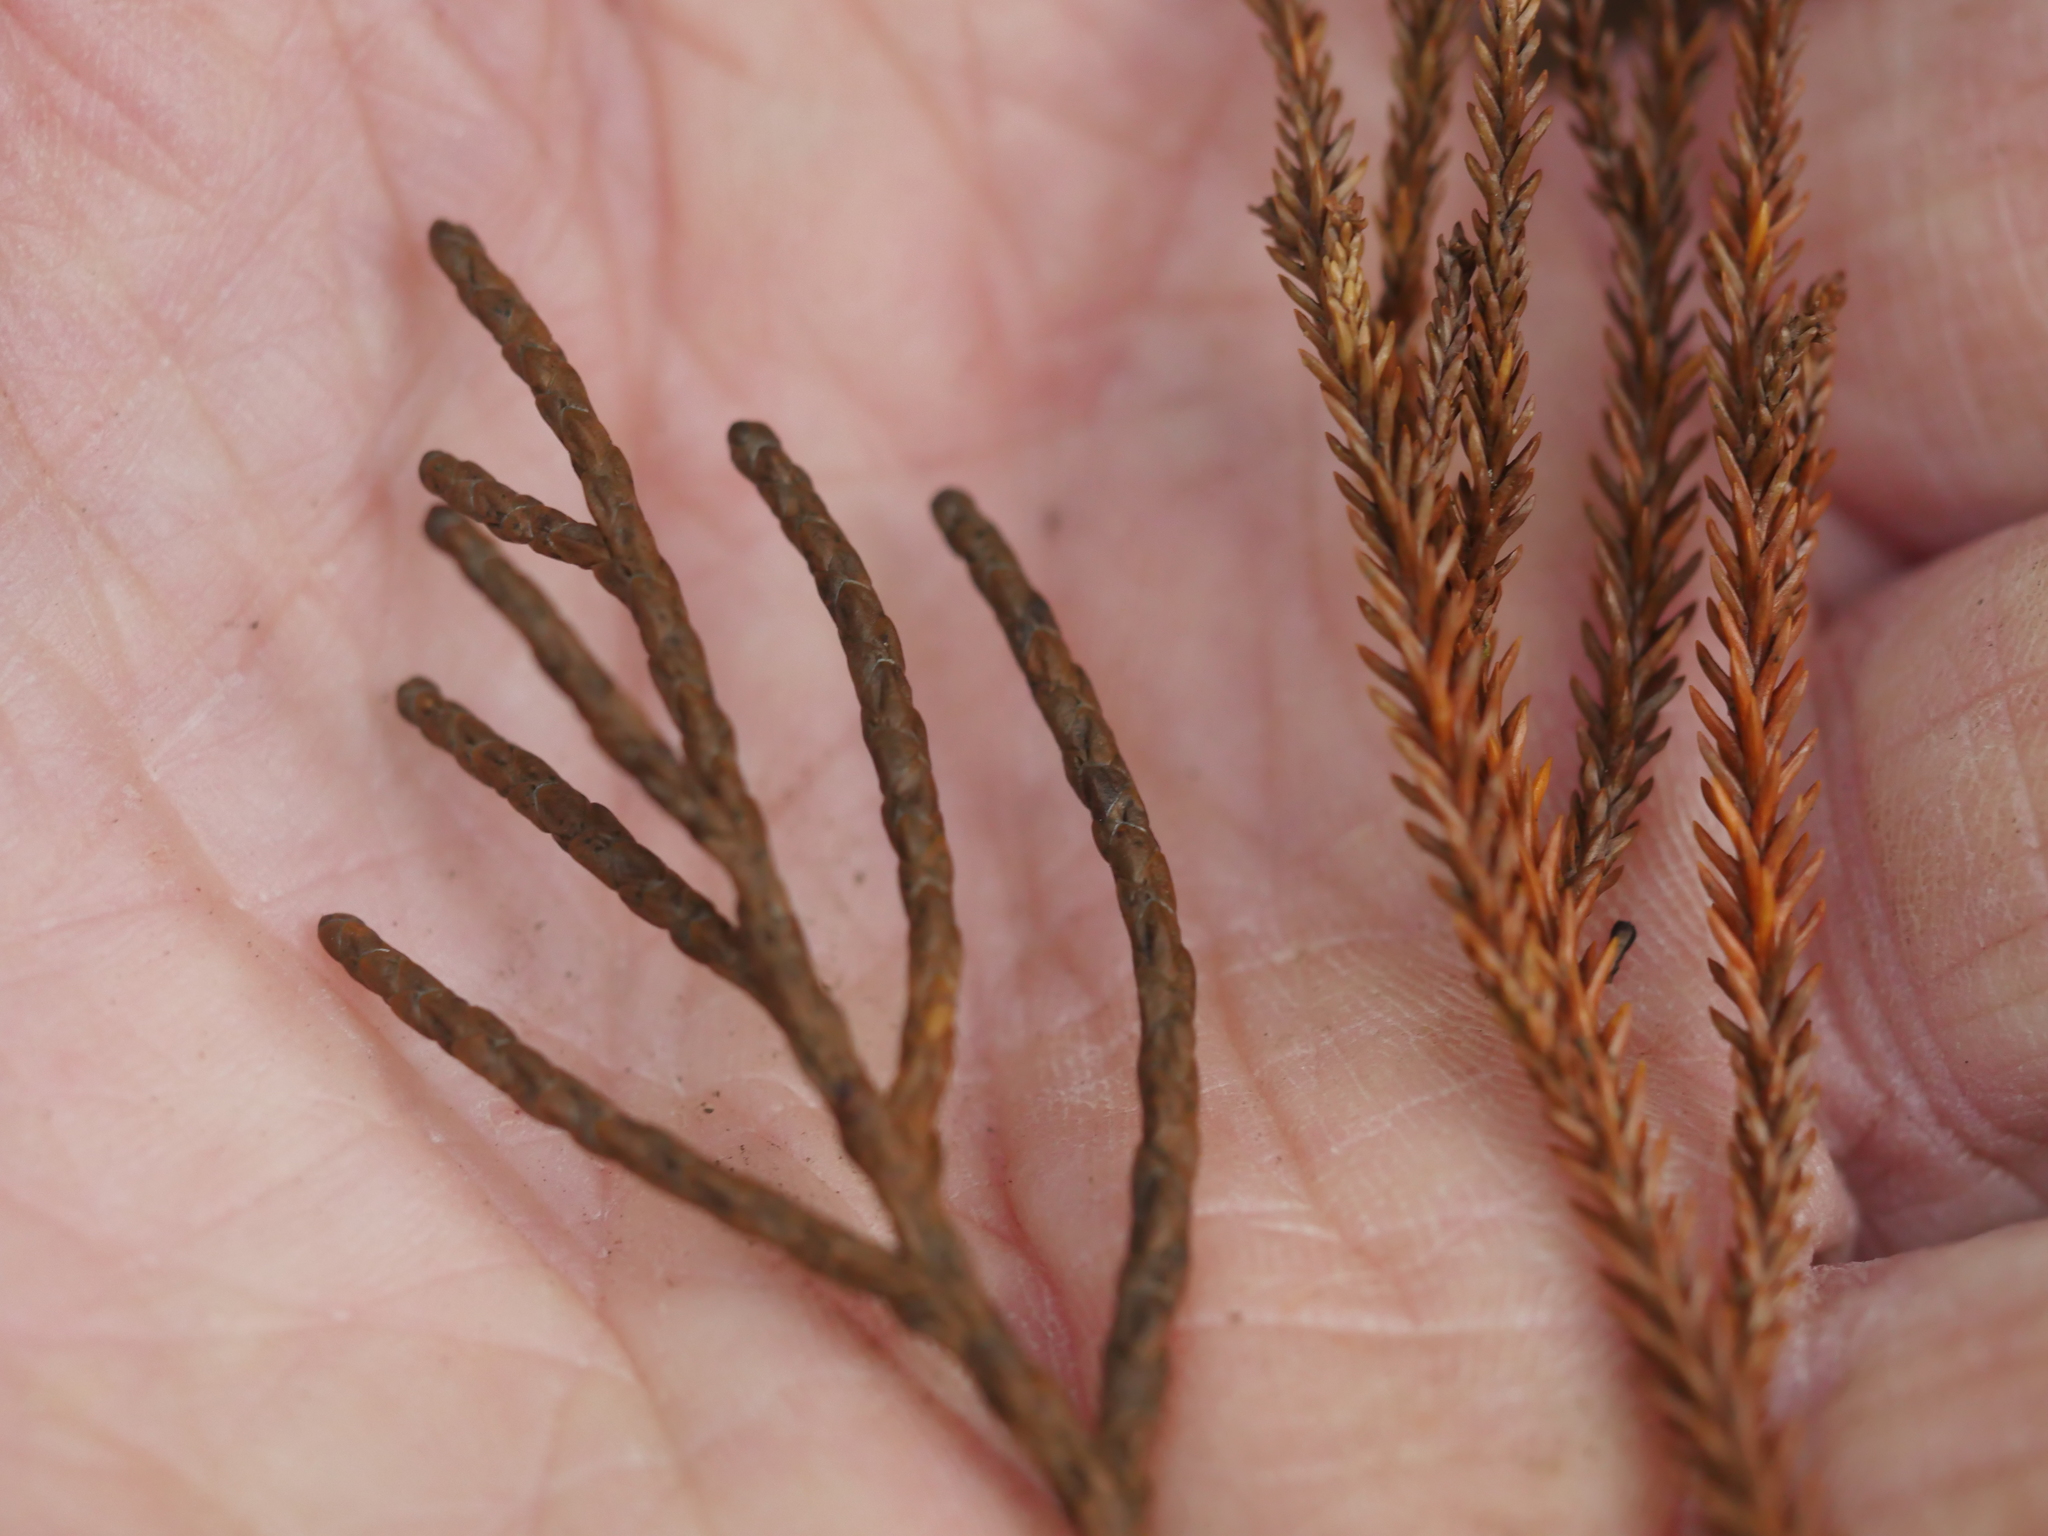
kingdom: Plantae
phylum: Tracheophyta
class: Pinopsida
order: Pinales
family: Podocarpaceae
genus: Halocarpus
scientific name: Halocarpus kirkii
